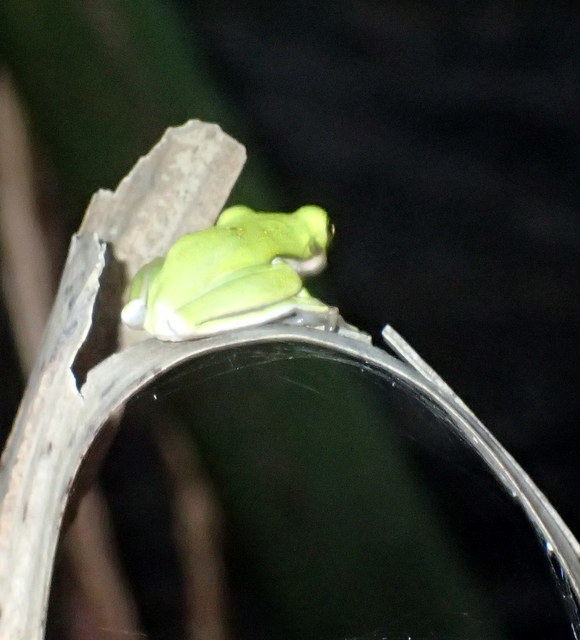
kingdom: Animalia
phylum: Chordata
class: Amphibia
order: Anura
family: Hylidae
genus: Dryophytes
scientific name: Dryophytes cinereus
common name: Green treefrog
